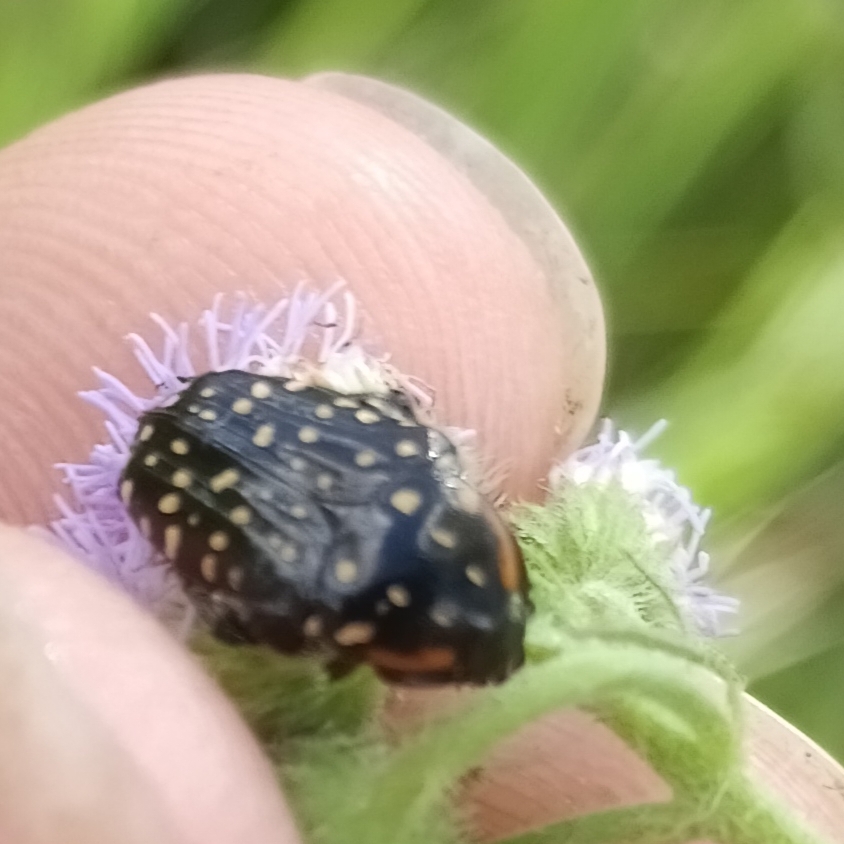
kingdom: Animalia
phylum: Arthropoda
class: Insecta
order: Coleoptera
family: Scarabaeidae
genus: Oxythyrea
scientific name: Oxythyrea
